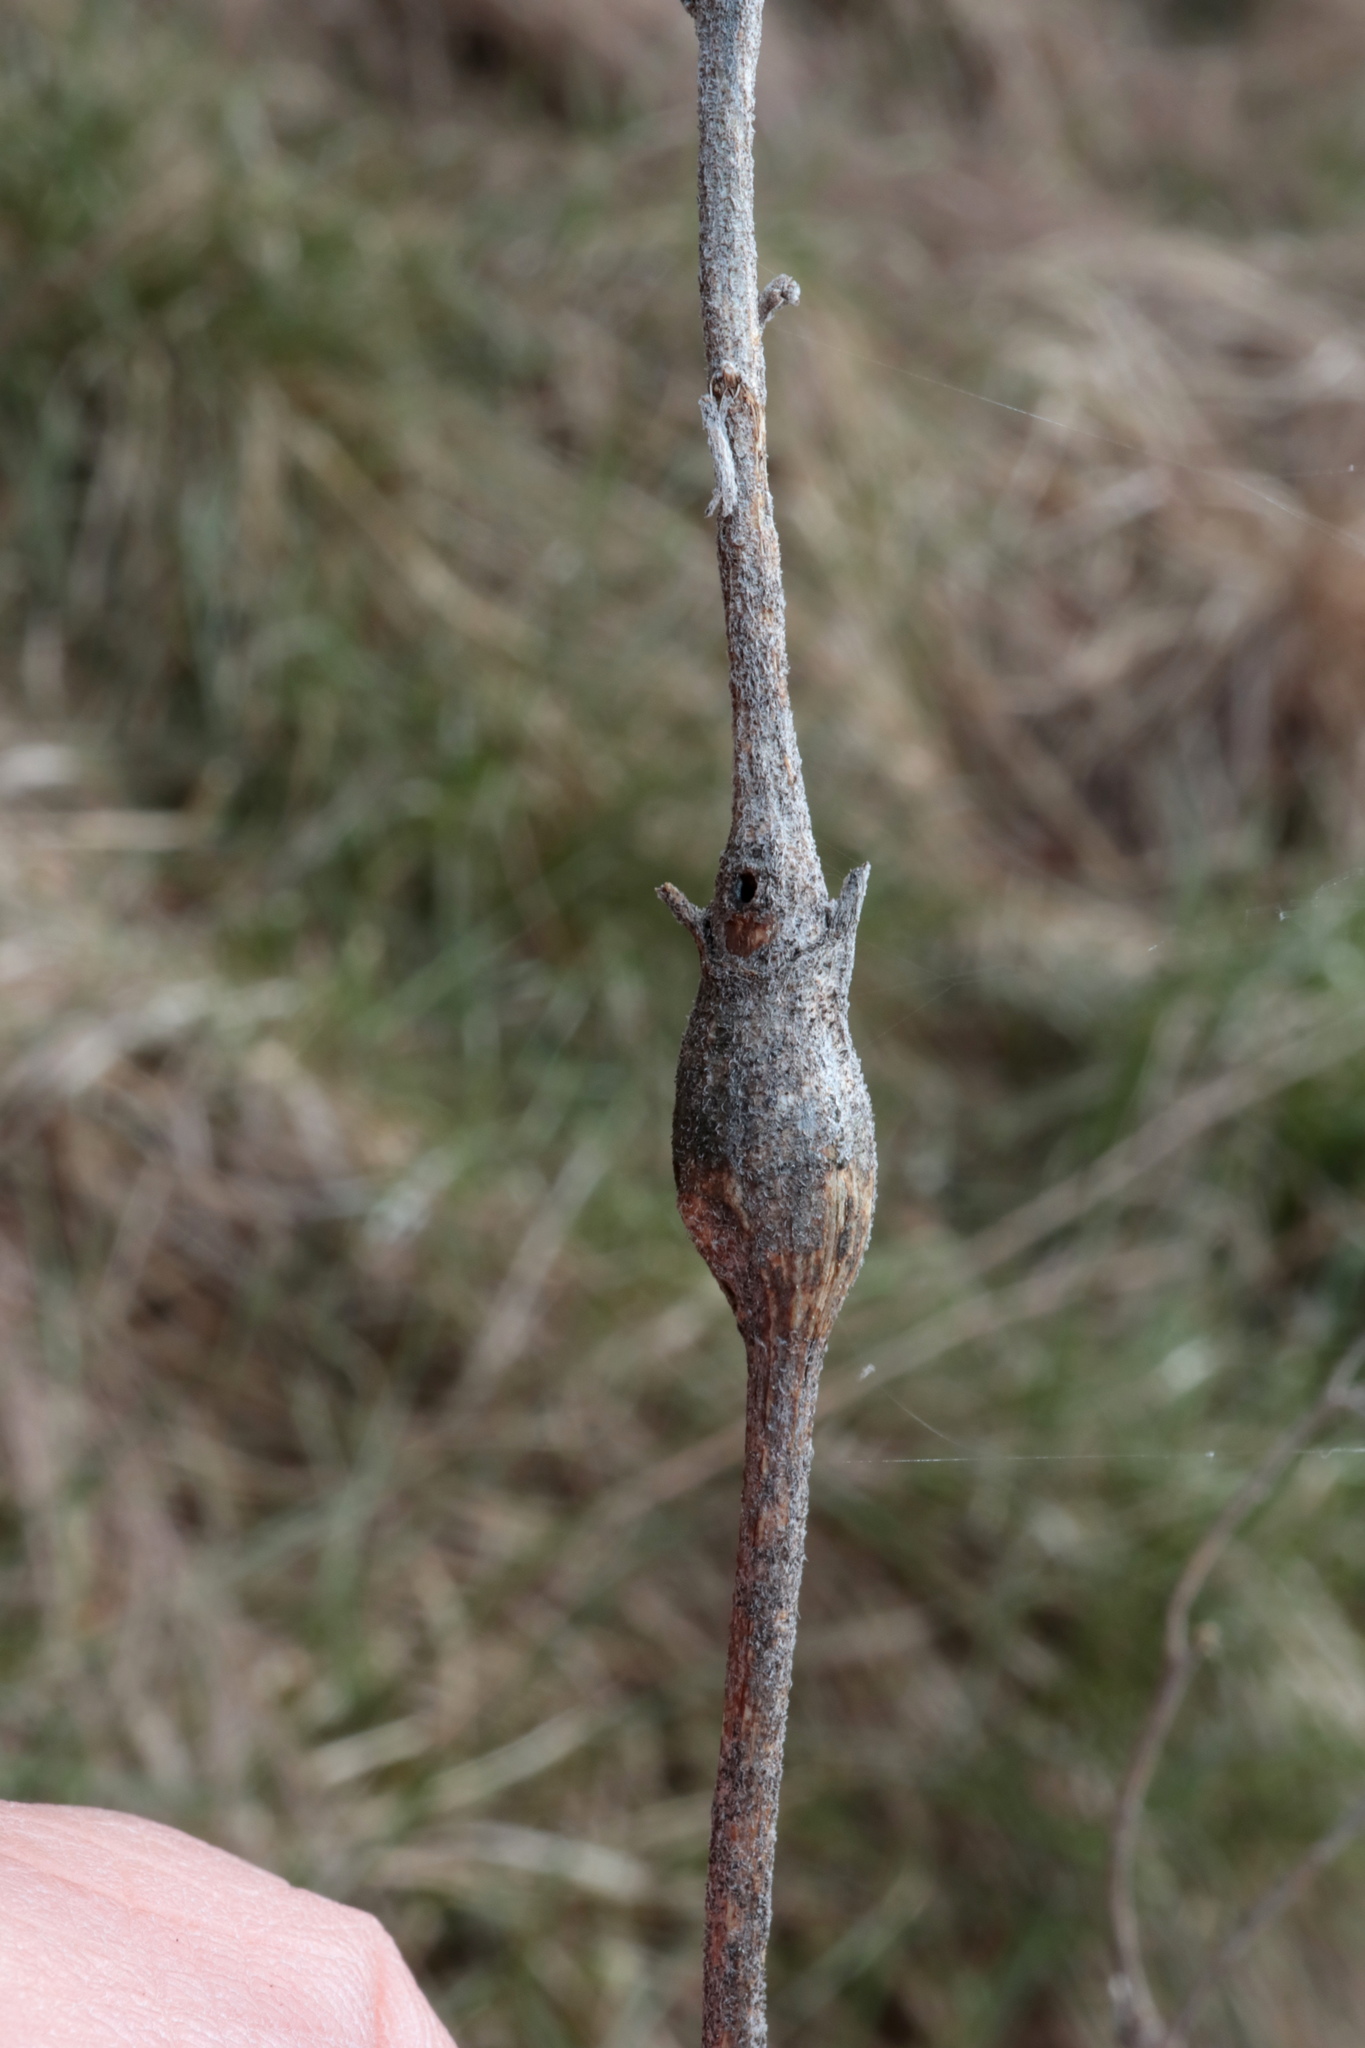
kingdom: Animalia
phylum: Arthropoda
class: Insecta
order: Diptera
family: Cecidomyiidae
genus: Neolasioptera
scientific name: Neolasioptera eupatorii
